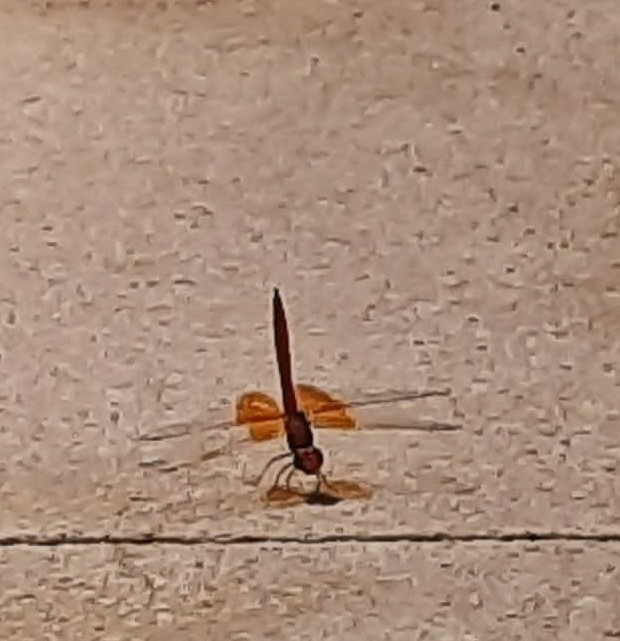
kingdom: Animalia
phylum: Arthropoda
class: Insecta
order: Odonata
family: Libellulidae
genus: Trithemis
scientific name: Trithemis kirbyi
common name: Kirby's dropwing
